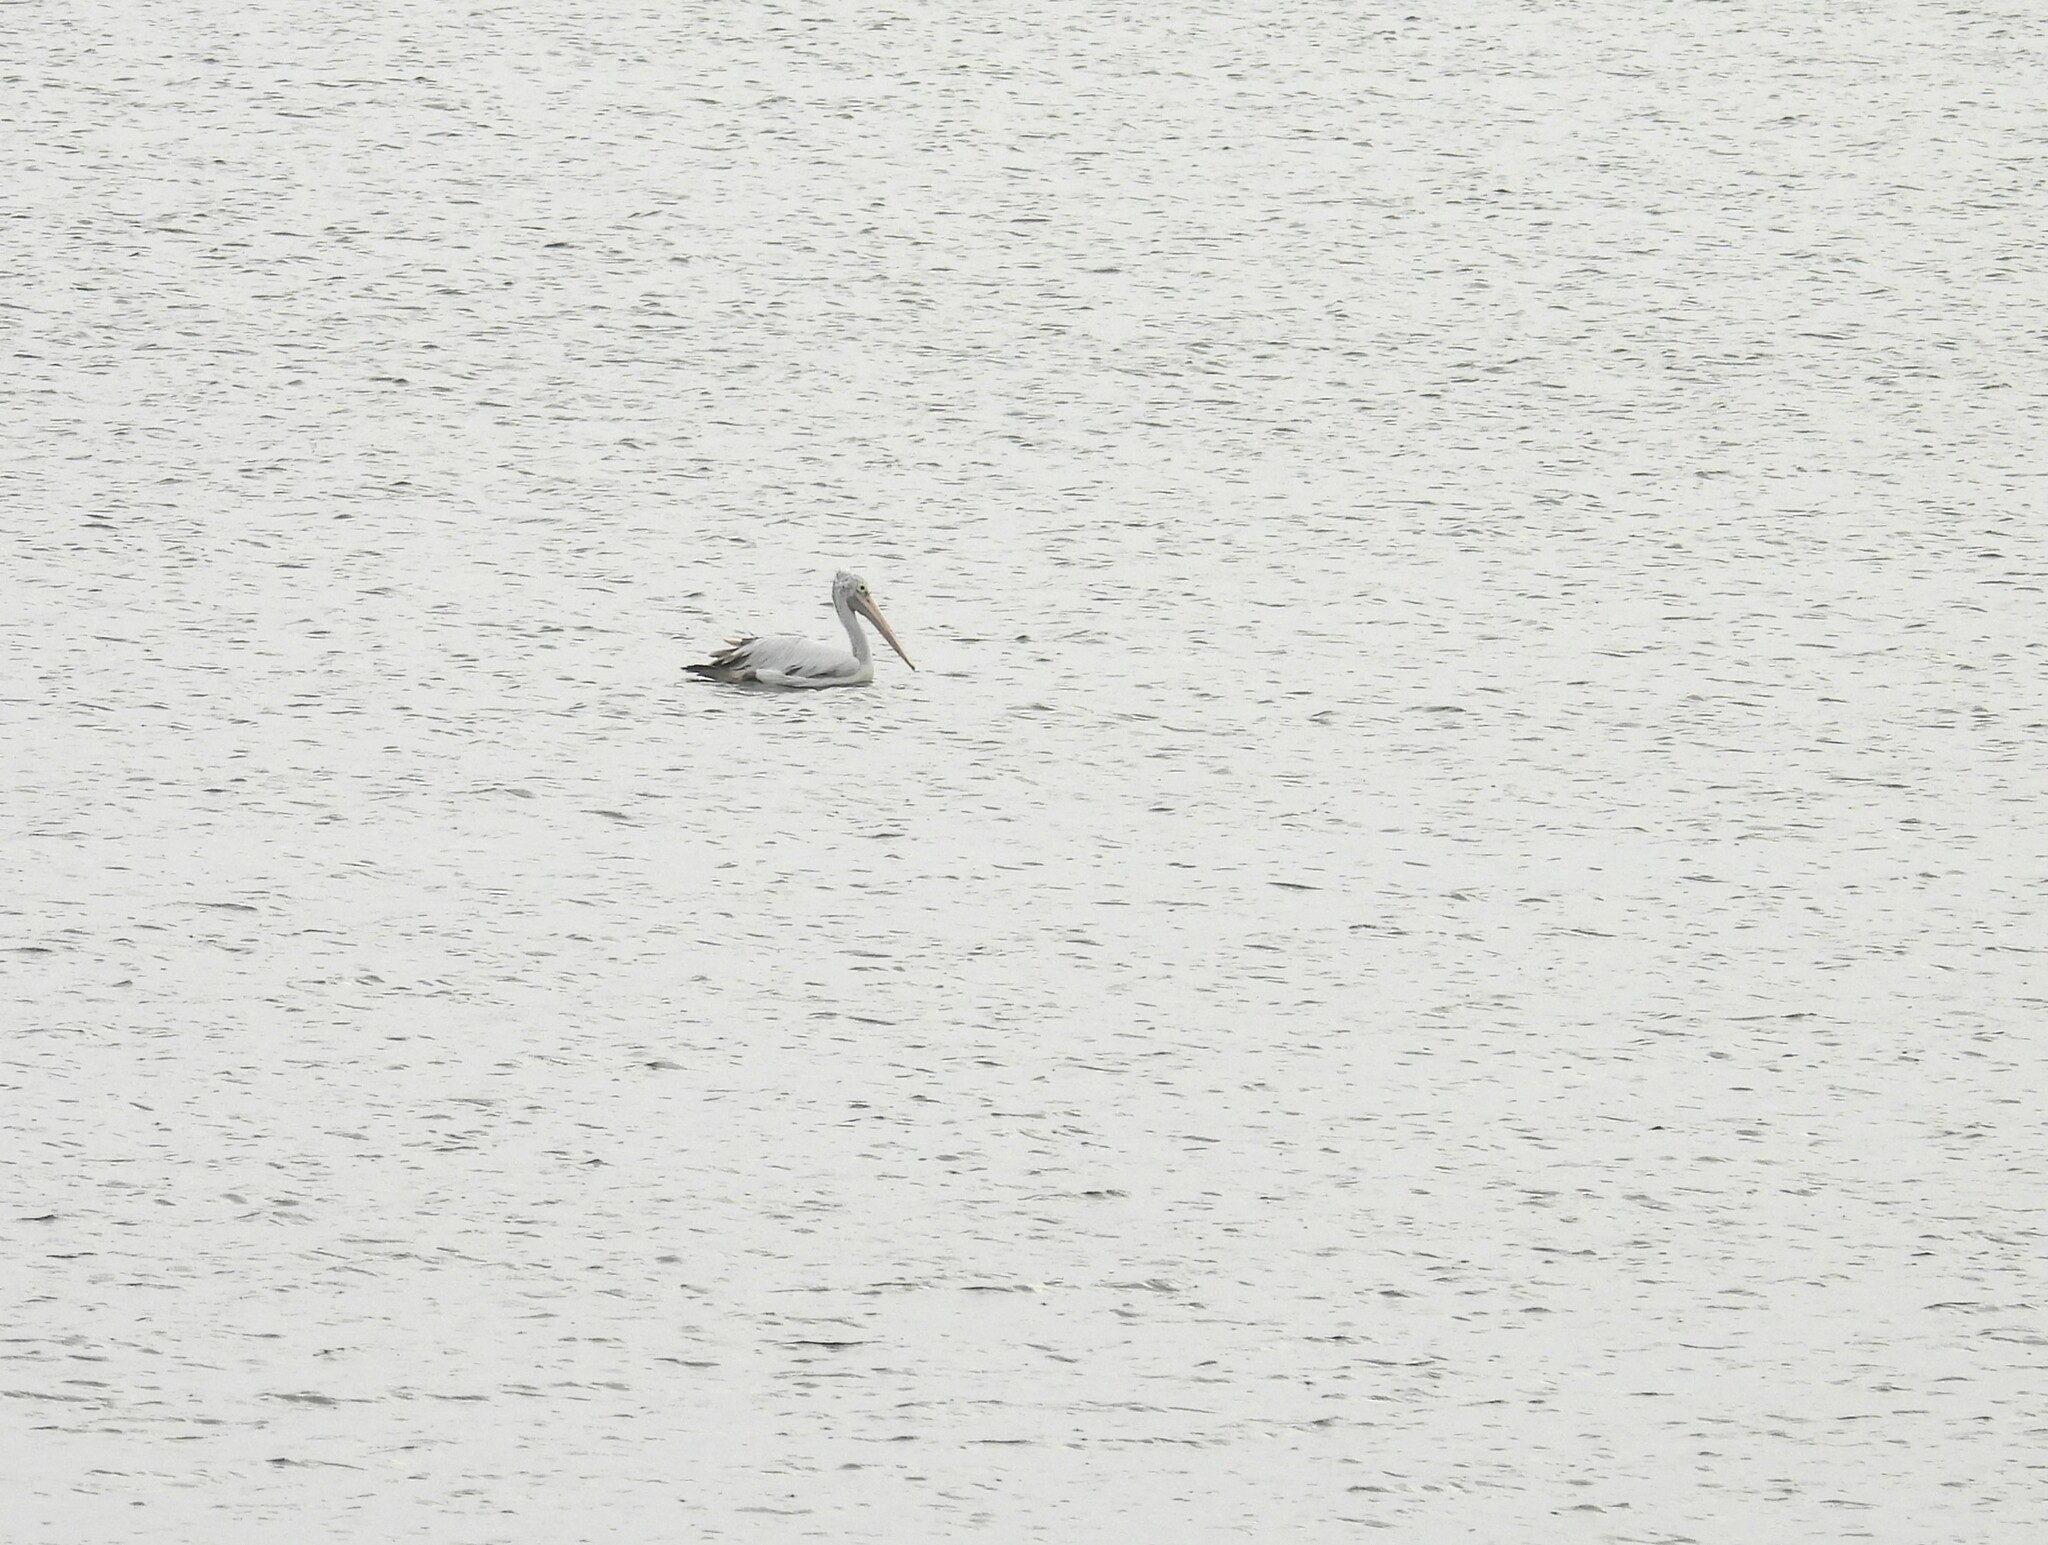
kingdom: Animalia
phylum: Chordata
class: Aves
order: Pelecaniformes
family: Pelecanidae
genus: Pelecanus
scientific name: Pelecanus philippensis
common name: Spot-billed pelican
